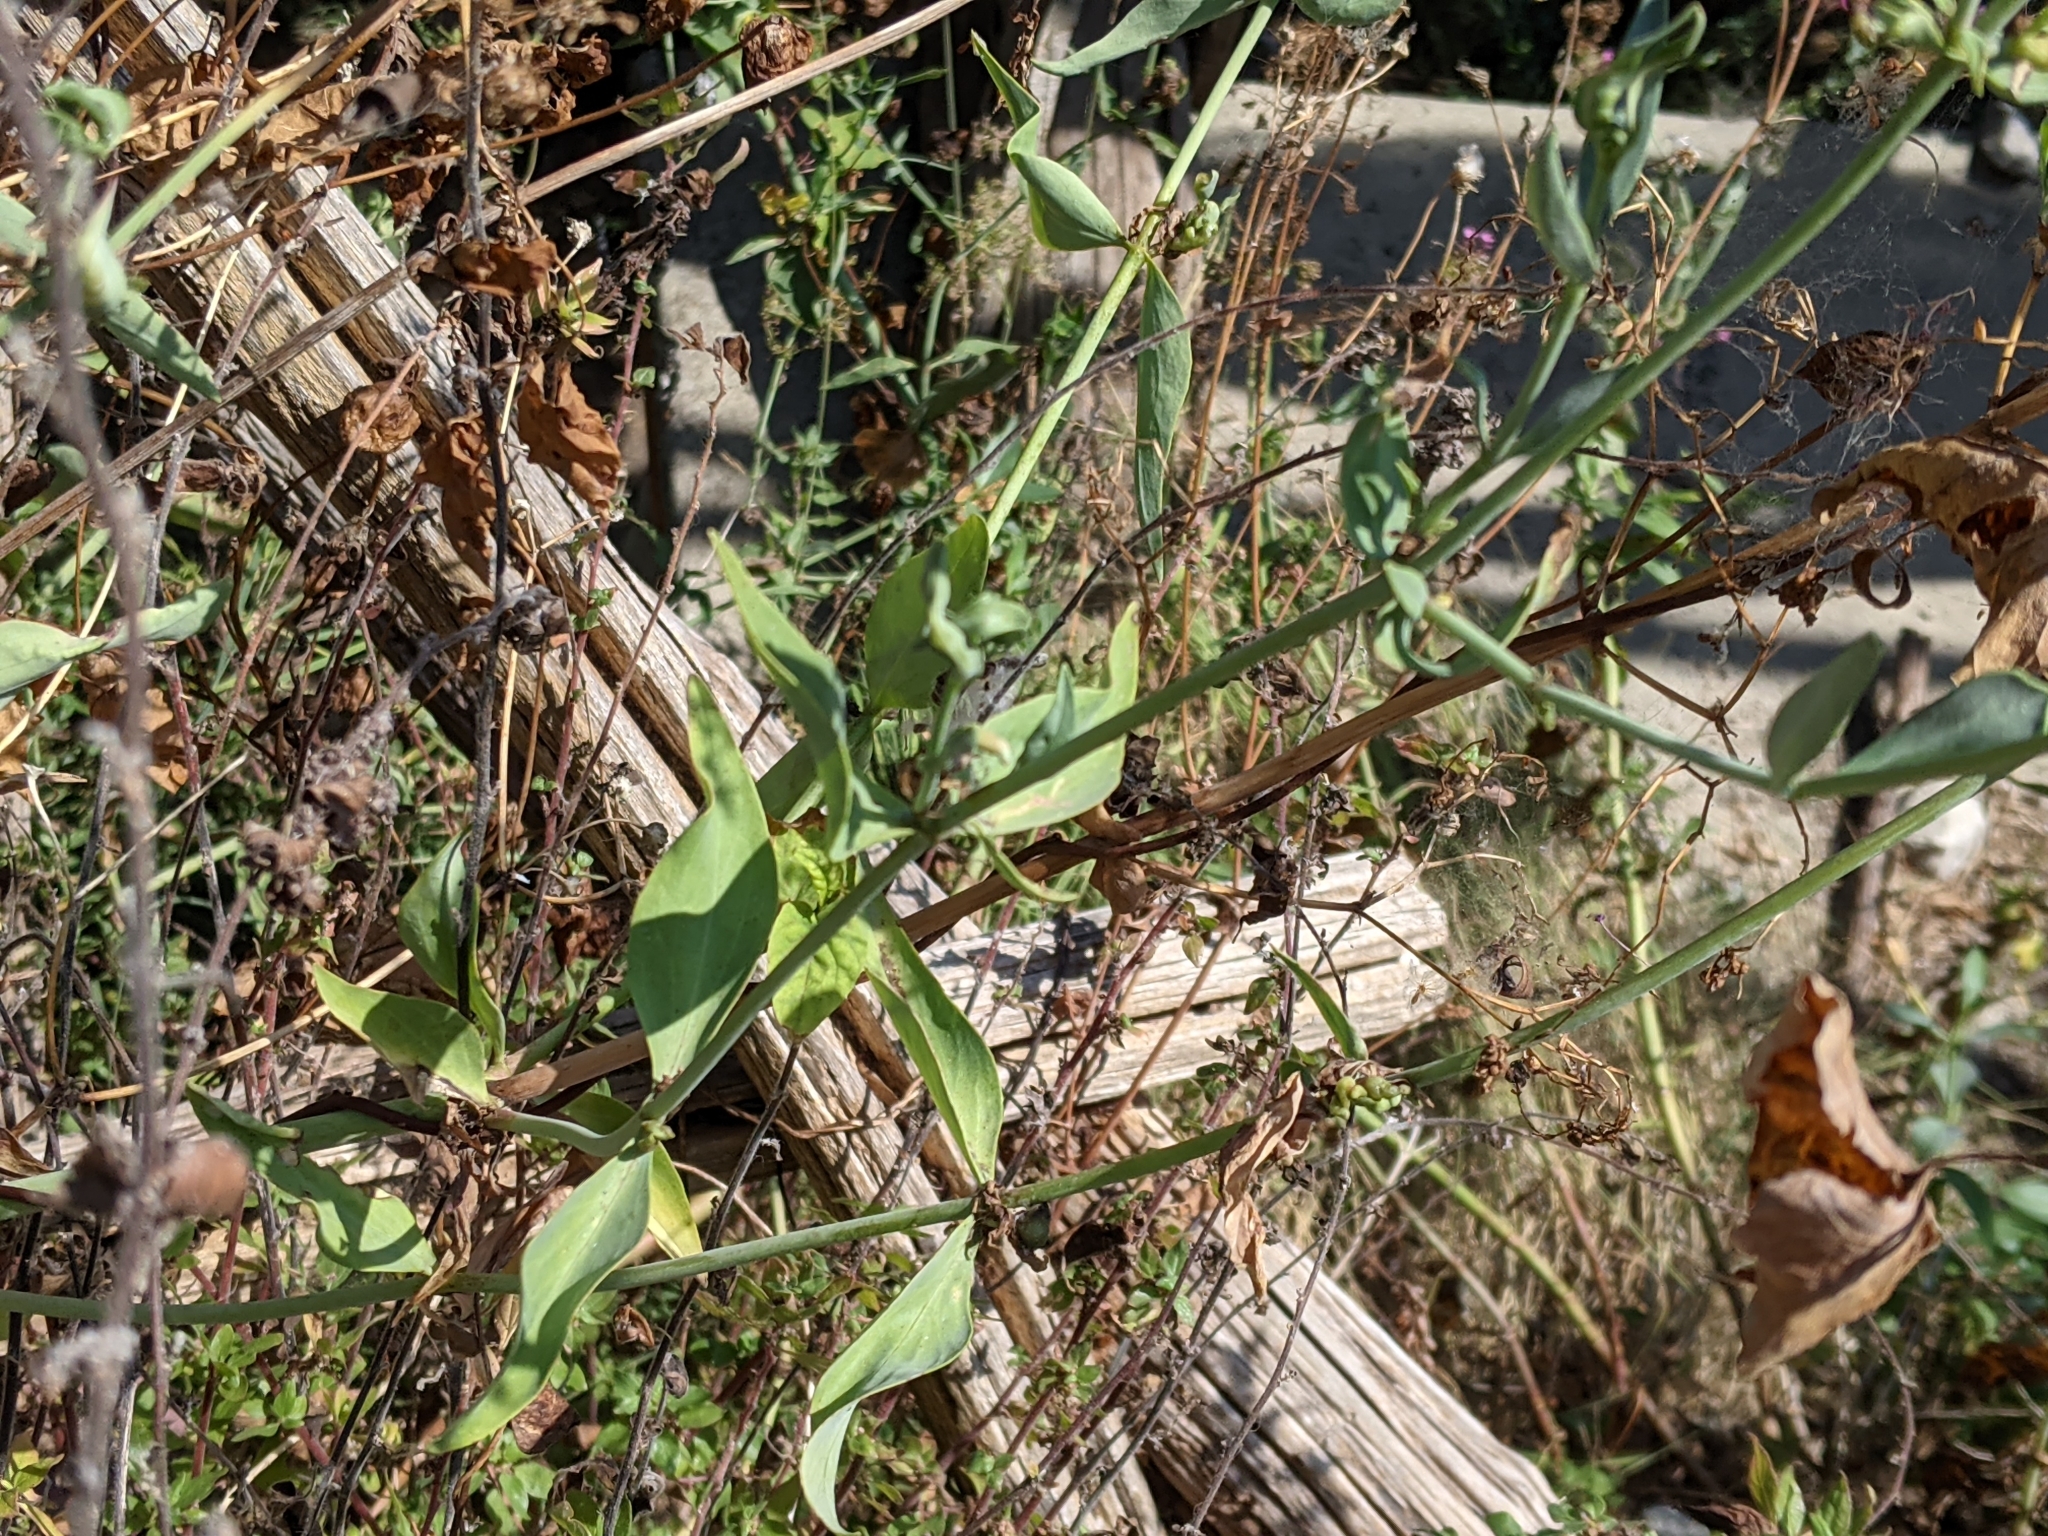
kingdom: Plantae
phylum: Tracheophyta
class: Magnoliopsida
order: Dipsacales
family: Caprifoliaceae
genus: Centranthus
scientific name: Centranthus ruber
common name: Red valerian
